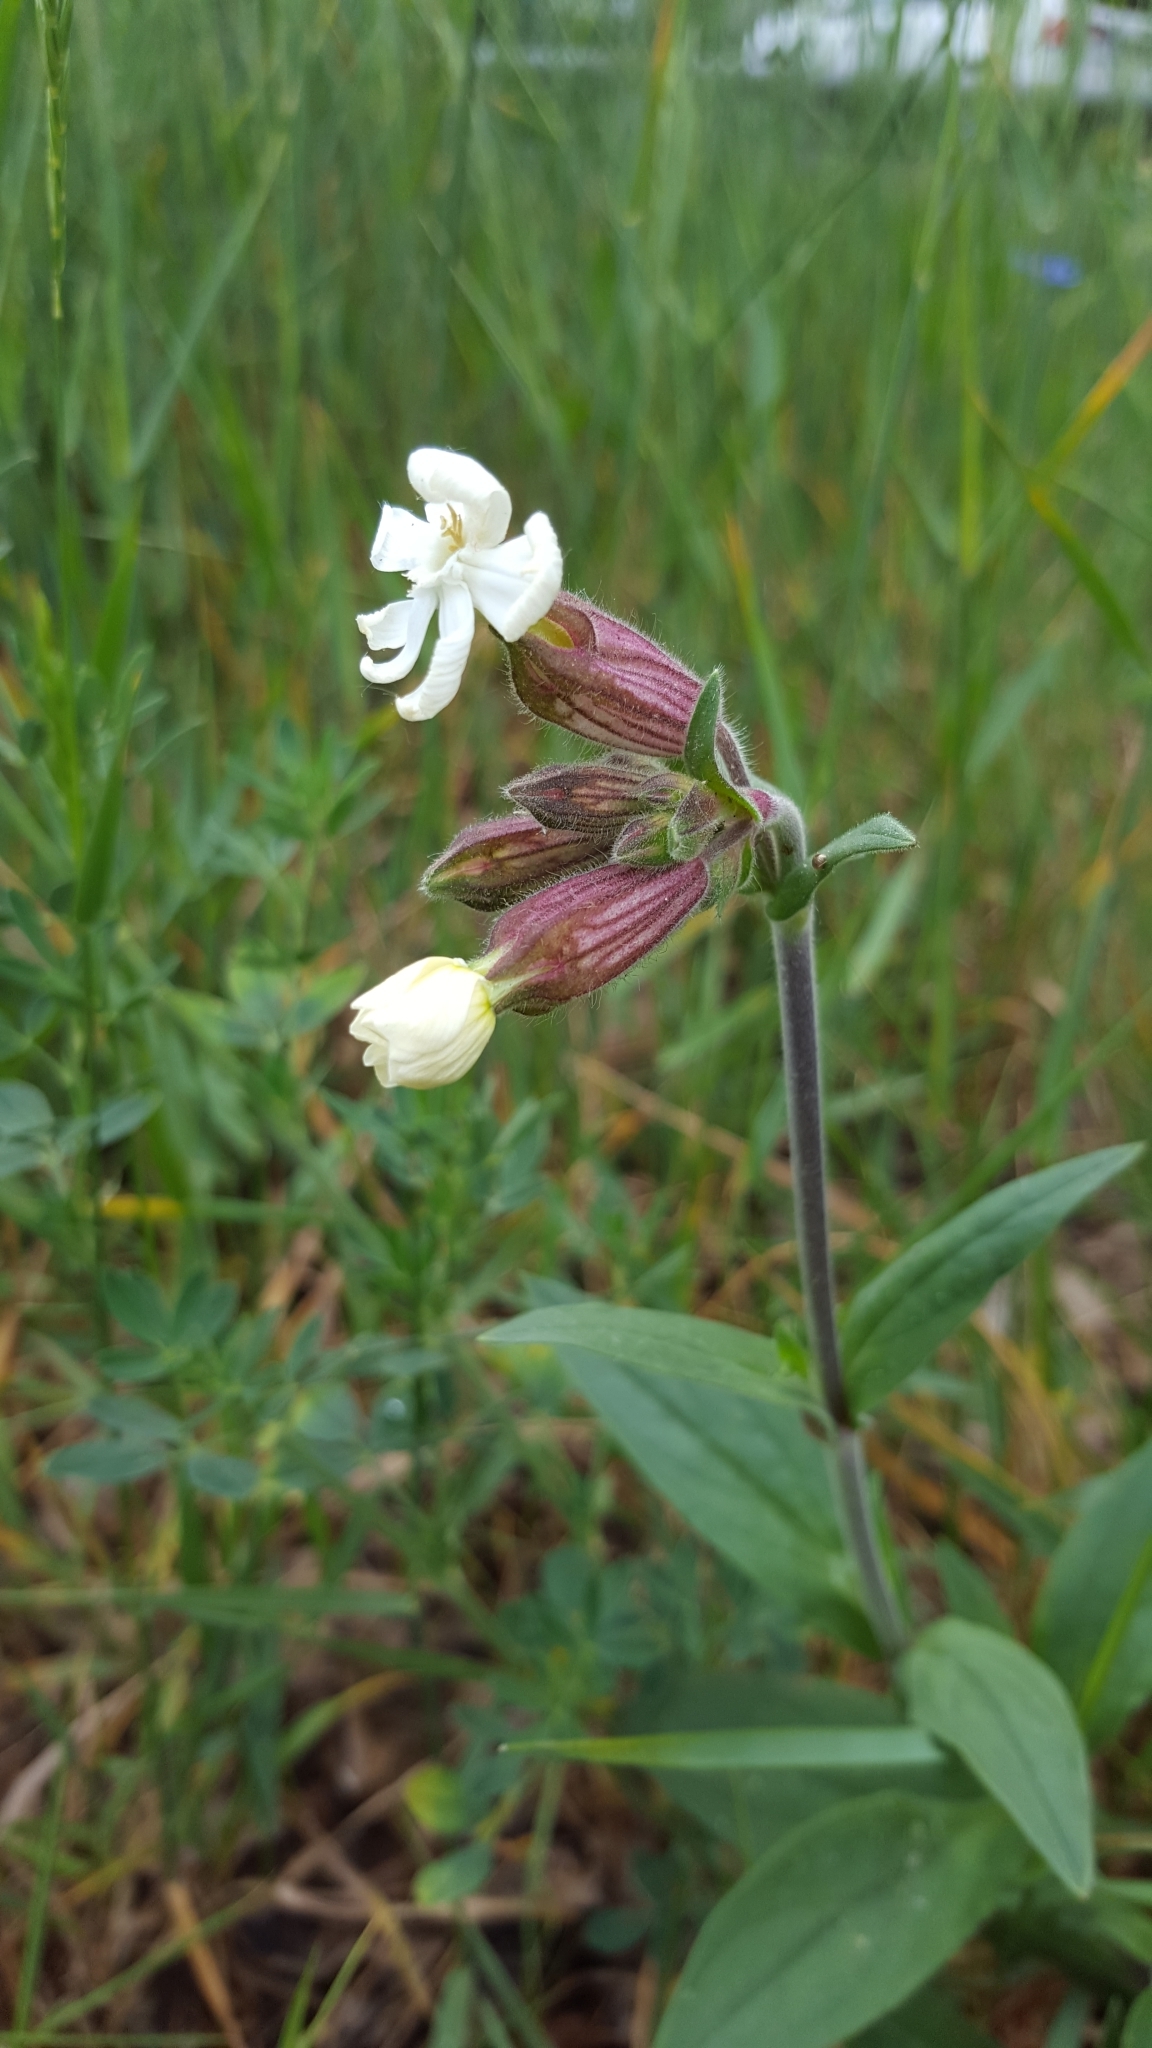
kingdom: Plantae
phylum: Tracheophyta
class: Magnoliopsida
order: Caryophyllales
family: Caryophyllaceae
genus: Silene
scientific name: Silene latifolia
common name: White campion
